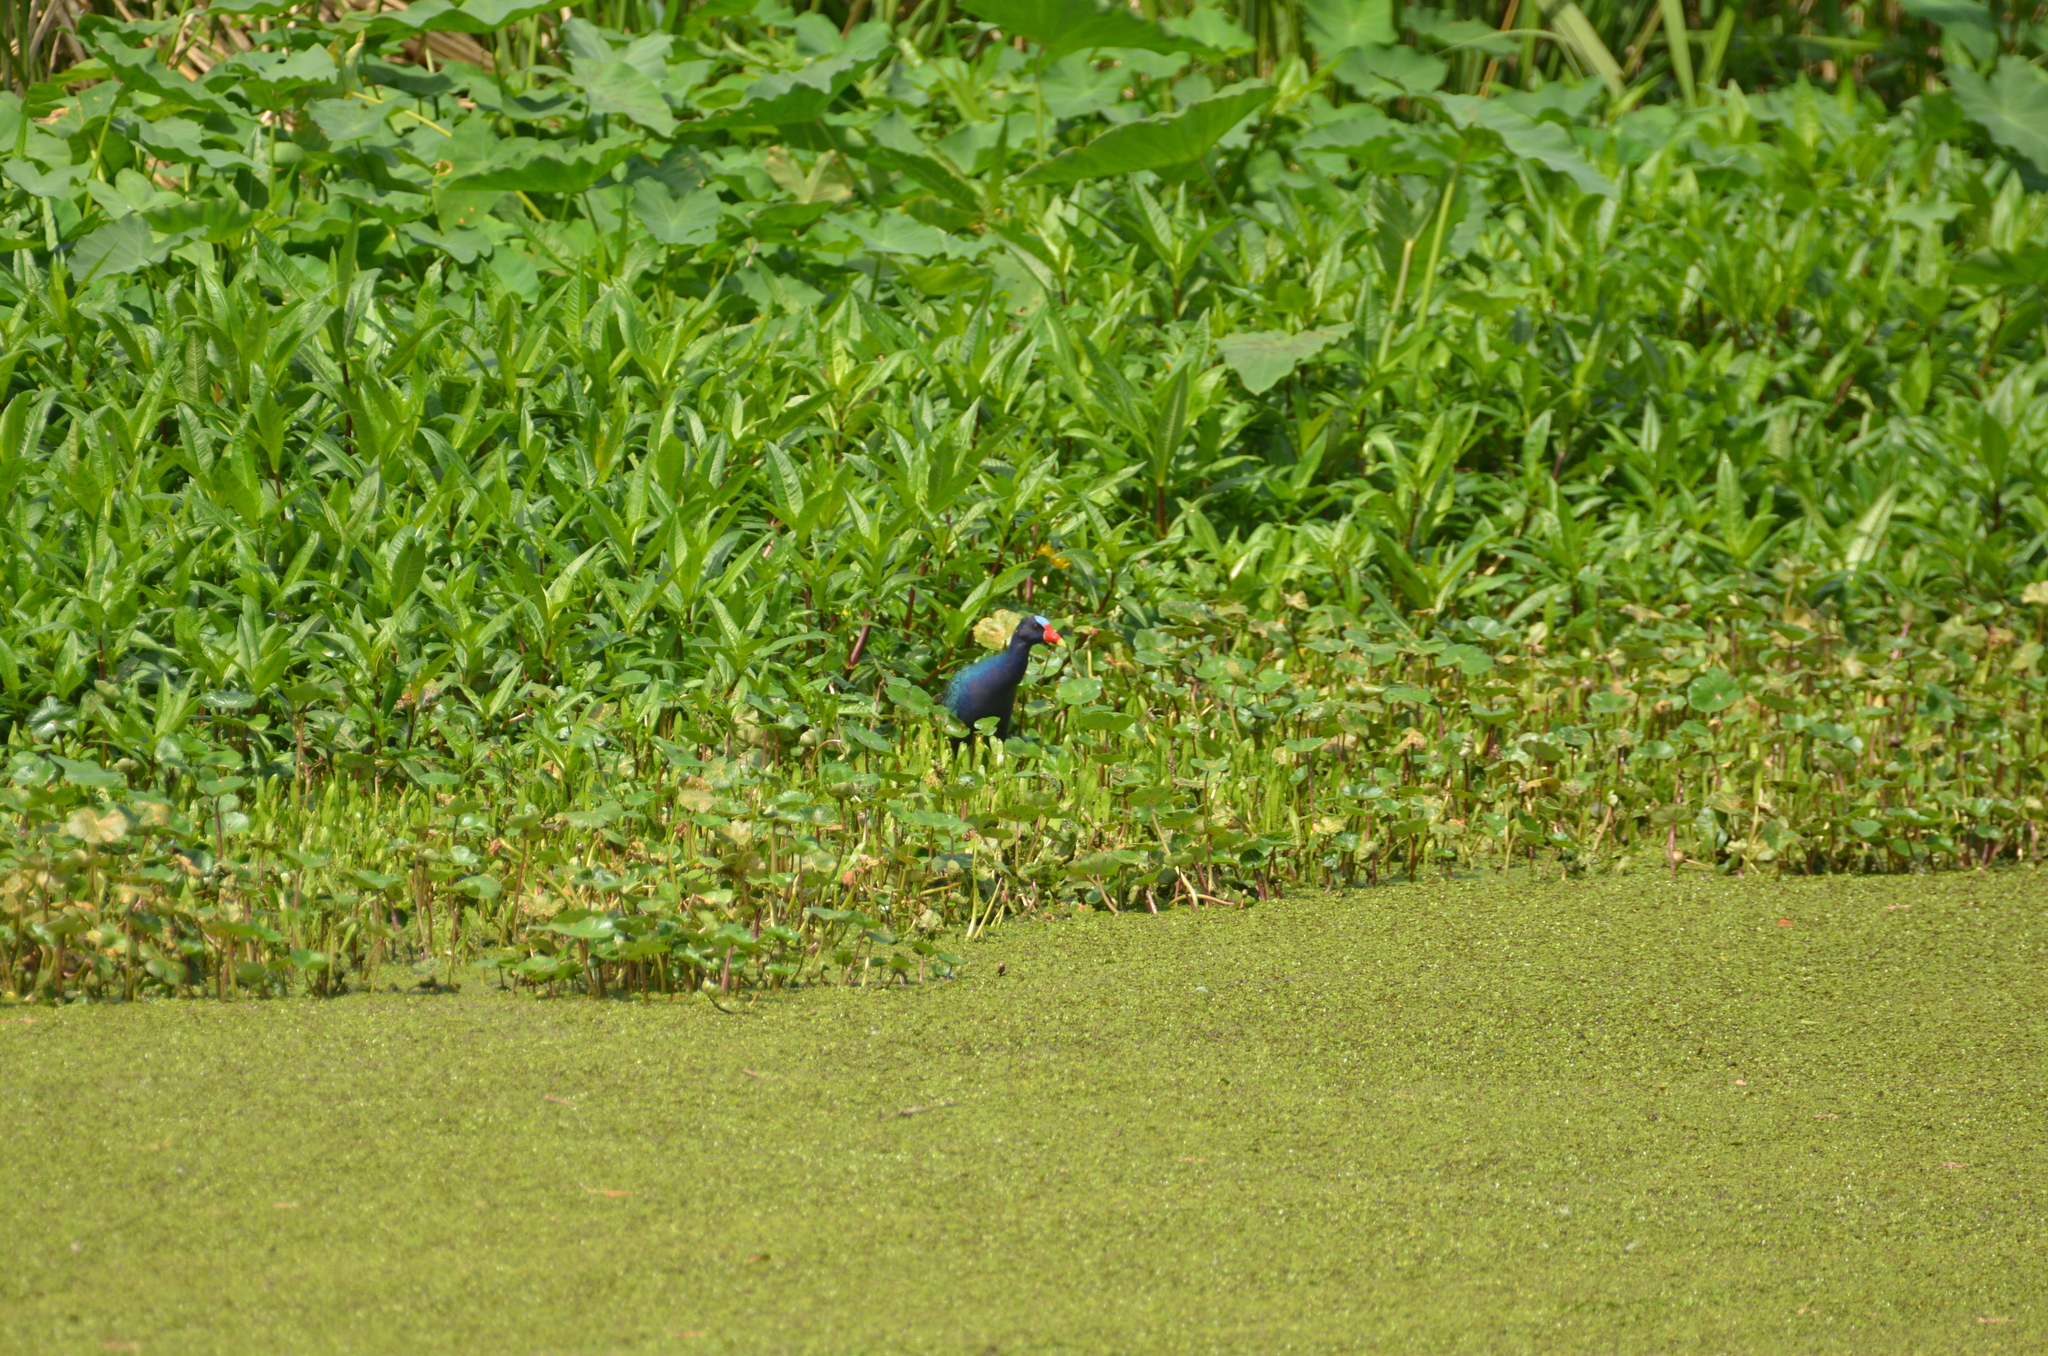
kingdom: Animalia
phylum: Chordata
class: Aves
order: Gruiformes
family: Rallidae
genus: Porphyrio
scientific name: Porphyrio martinica
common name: Purple gallinule
